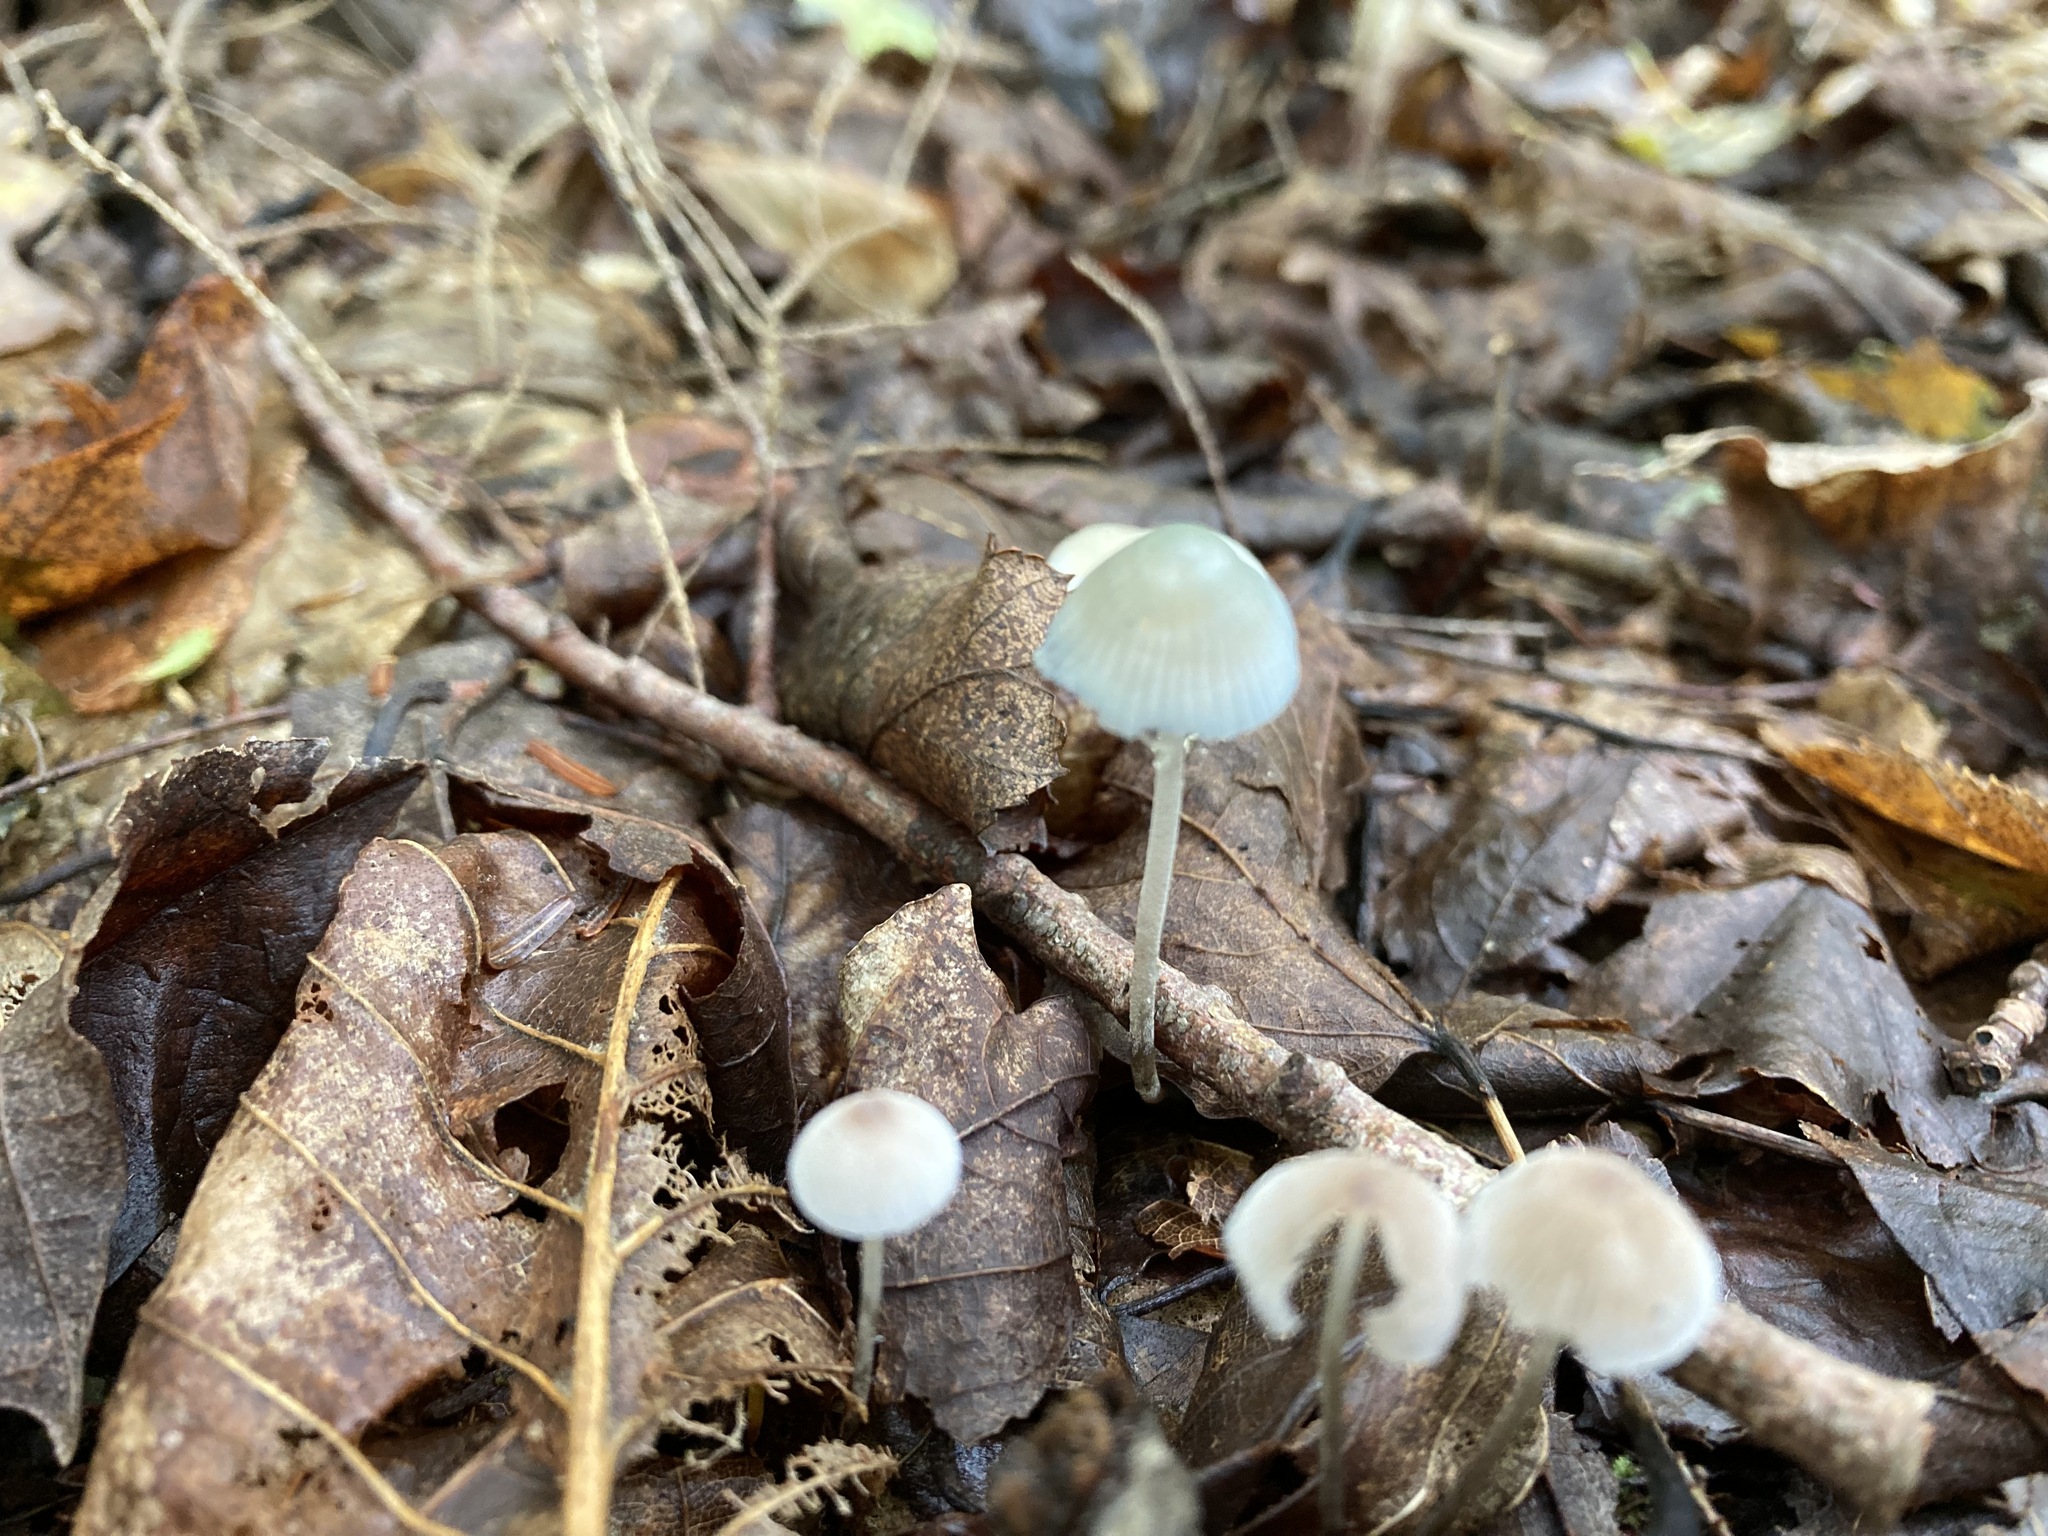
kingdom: Fungi
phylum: Basidiomycota
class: Agaricomycetes
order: Agaricales
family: Mycenaceae
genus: Mycena
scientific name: Mycena subcaerulea
